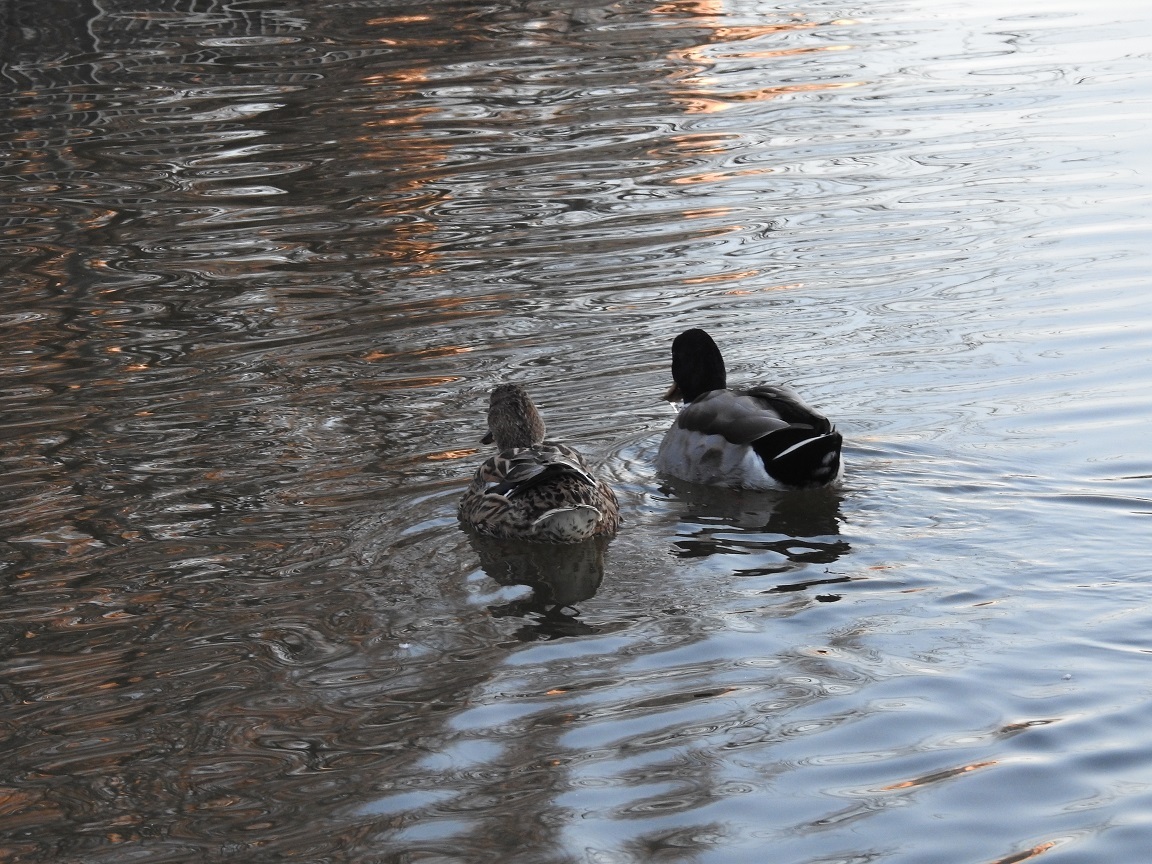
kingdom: Animalia
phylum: Chordata
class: Aves
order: Anseriformes
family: Anatidae
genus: Anas
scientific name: Anas platyrhynchos
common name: Mallard
